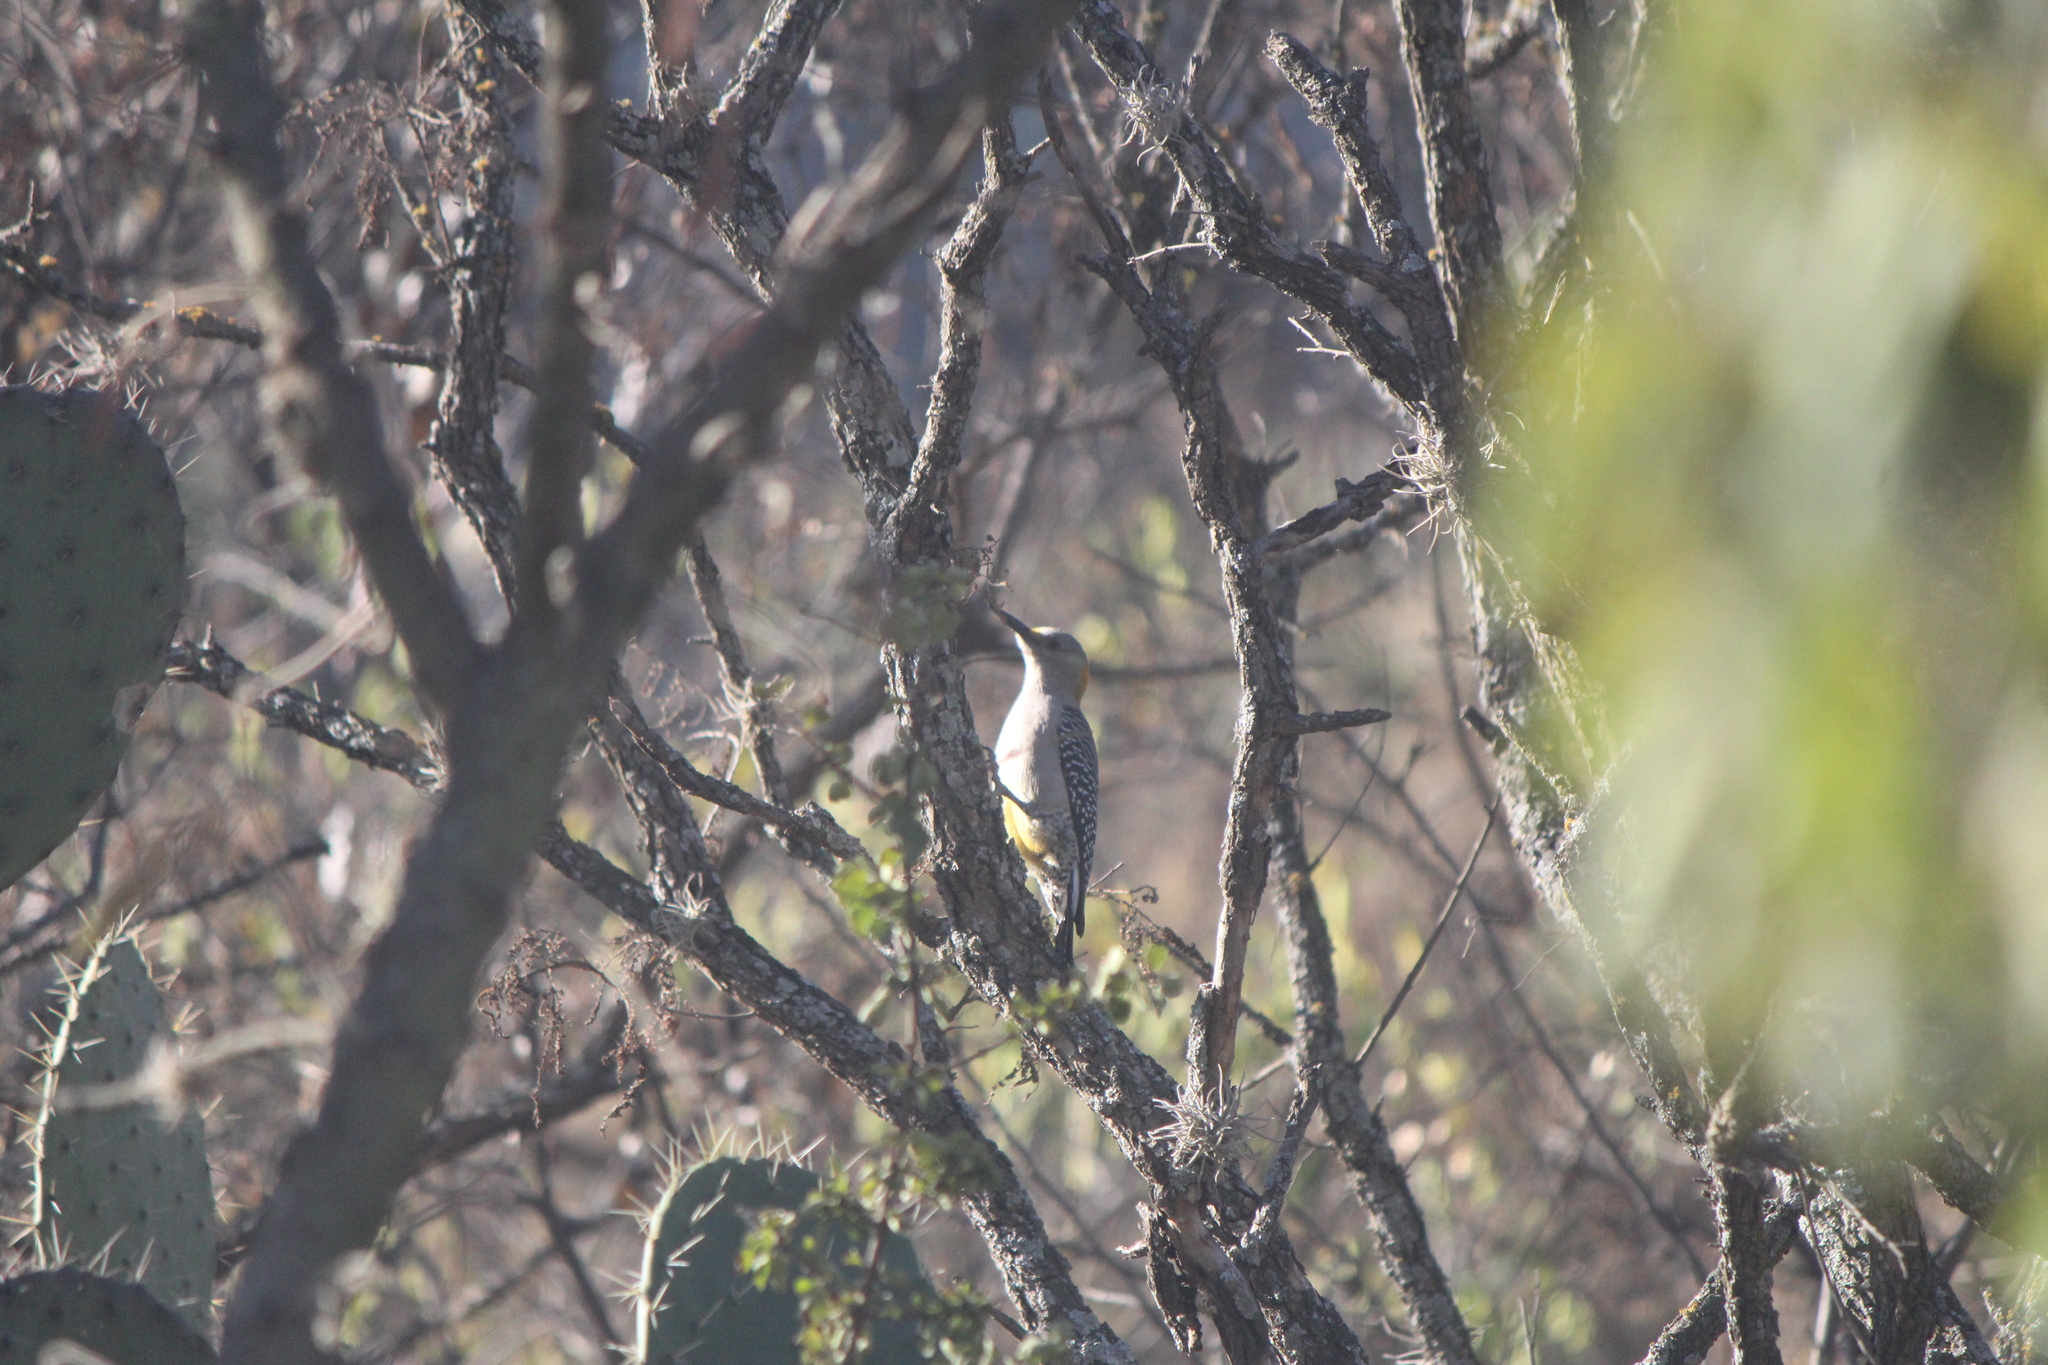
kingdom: Animalia
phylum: Chordata
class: Aves
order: Piciformes
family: Picidae
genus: Melanerpes
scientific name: Melanerpes aurifrons
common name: Golden-fronted woodpecker
